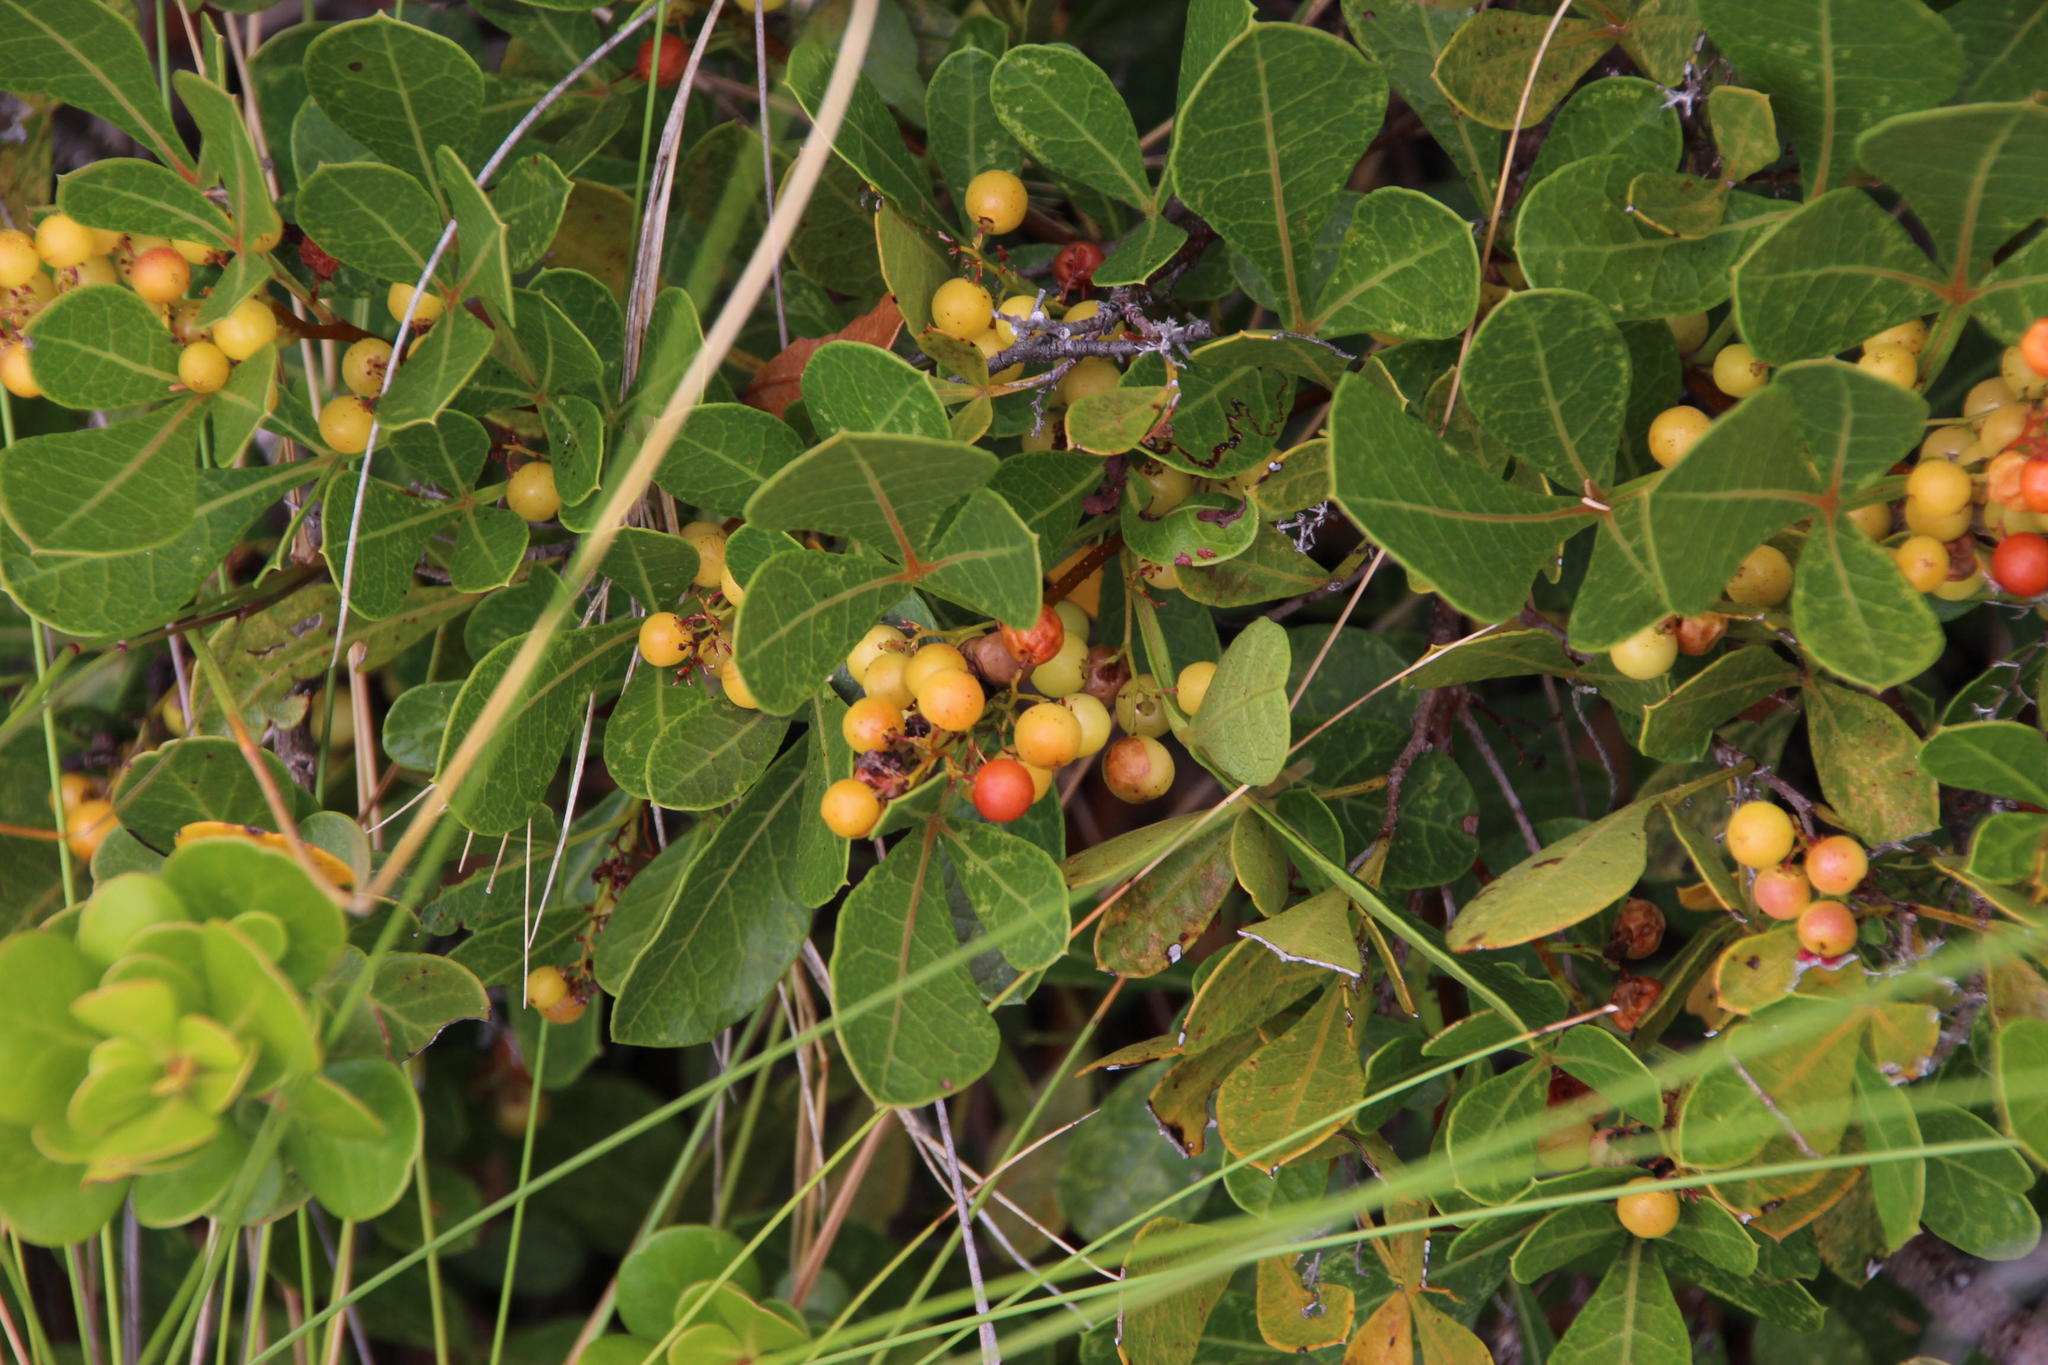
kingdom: Plantae
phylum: Tracheophyta
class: Magnoliopsida
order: Sapindales
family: Anacardiaceae
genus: Searsia
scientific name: Searsia laevigata
